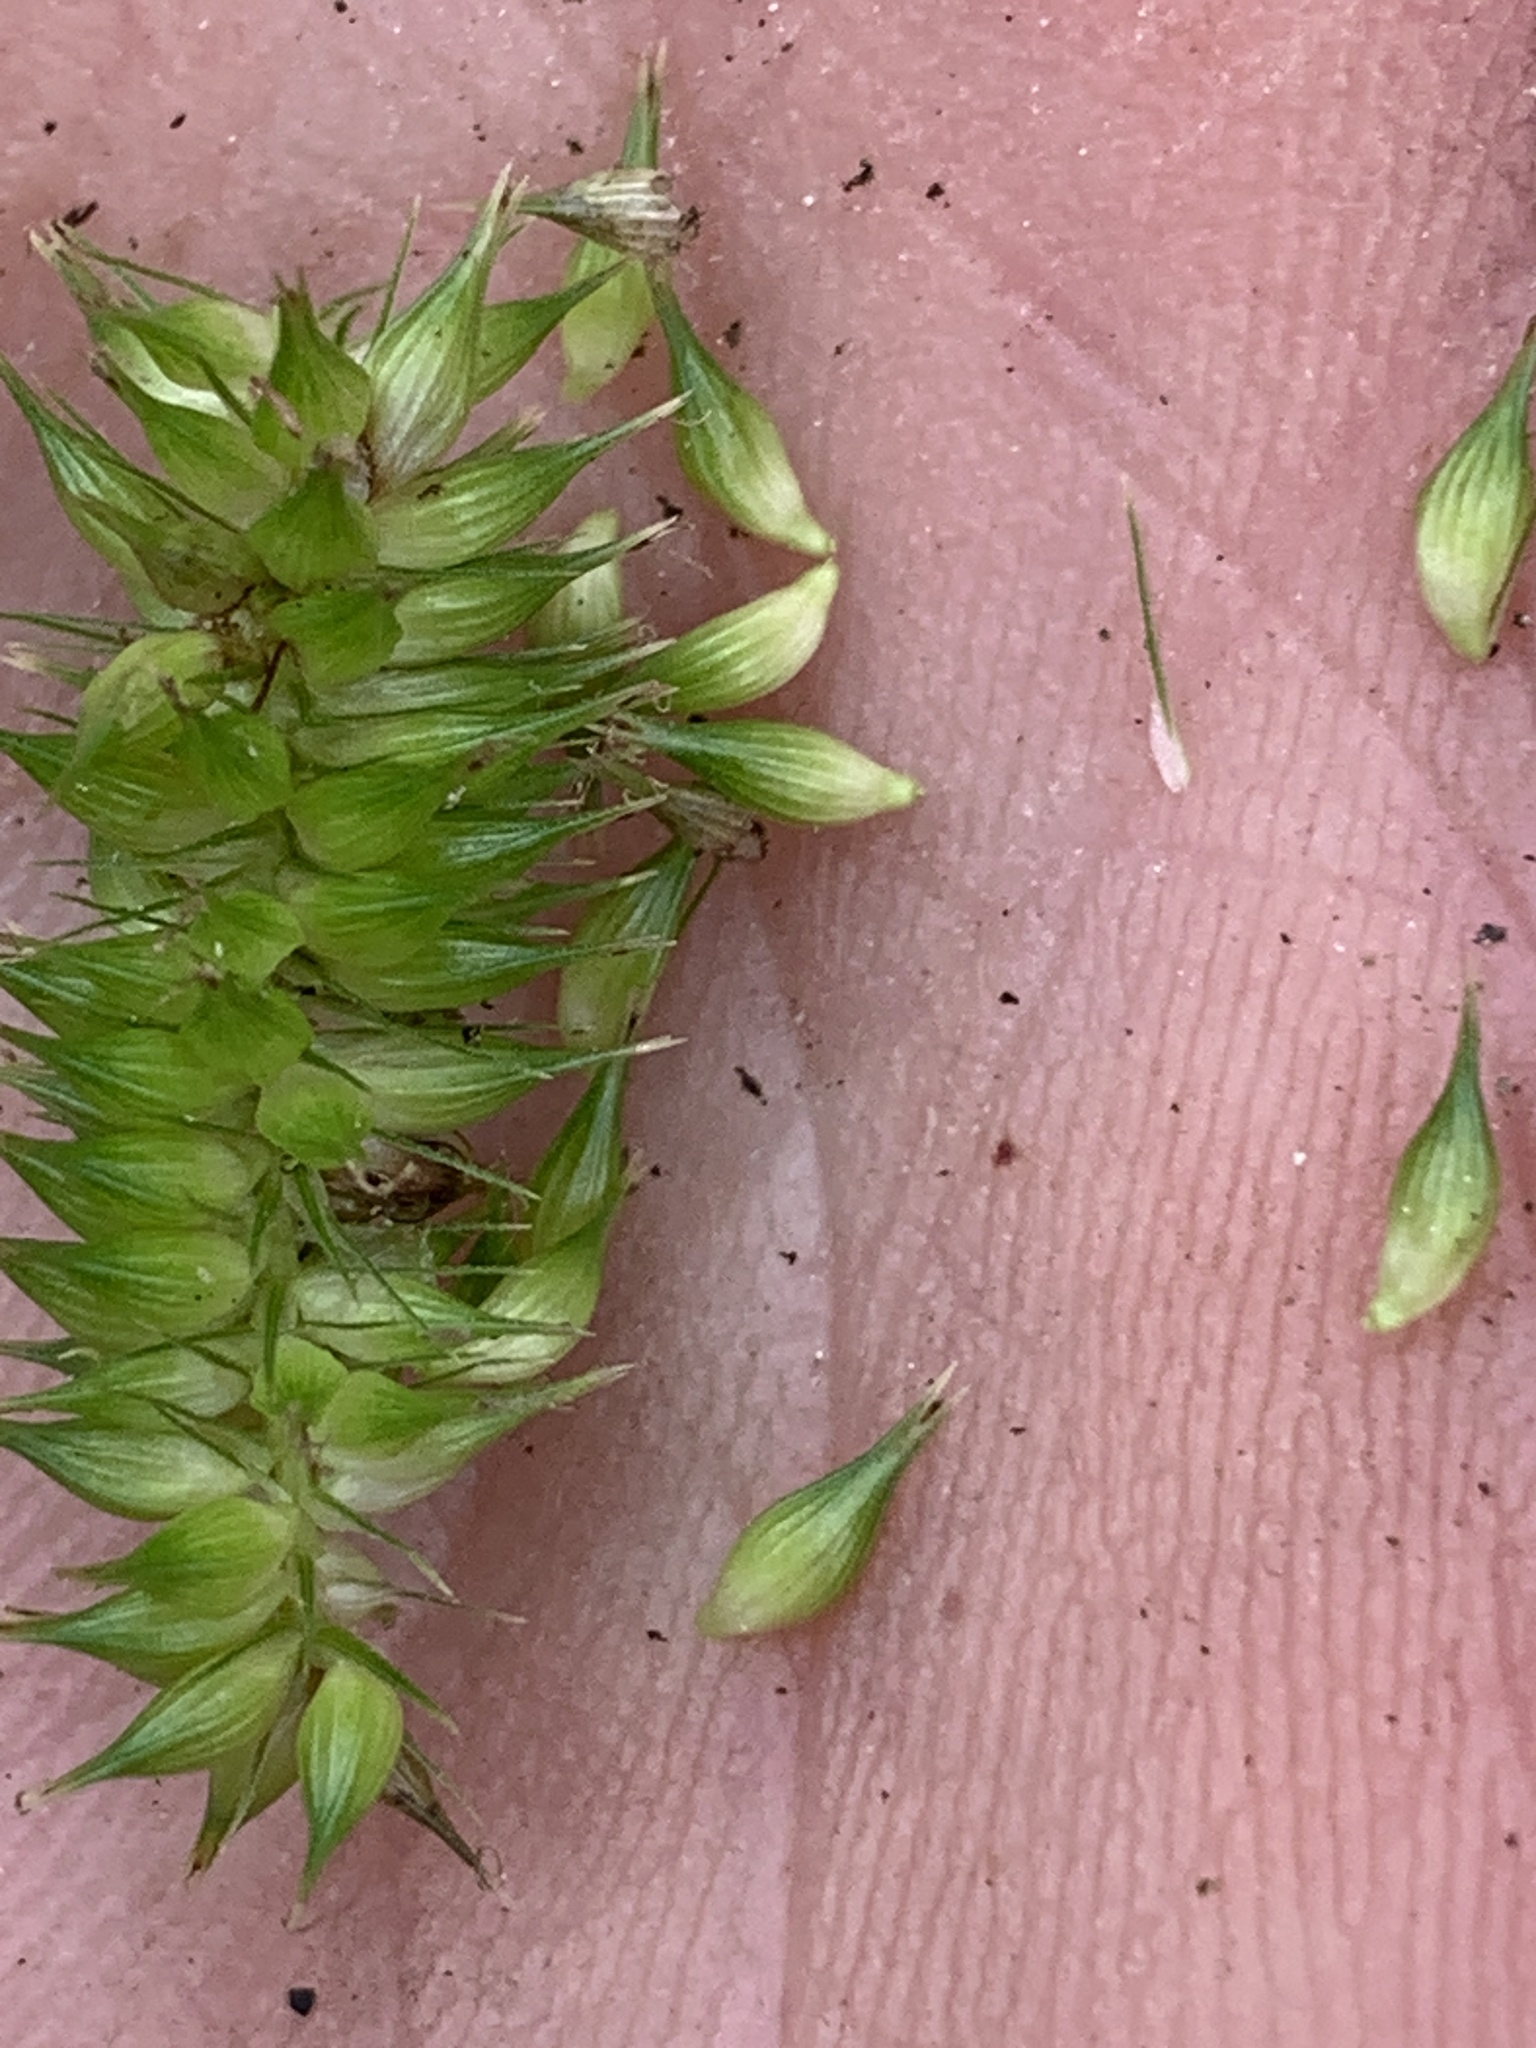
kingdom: Plantae
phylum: Tracheophyta
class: Liliopsida
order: Poales
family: Cyperaceae
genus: Carex
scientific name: Carex pseudocyperus
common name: Cyperus sedge
